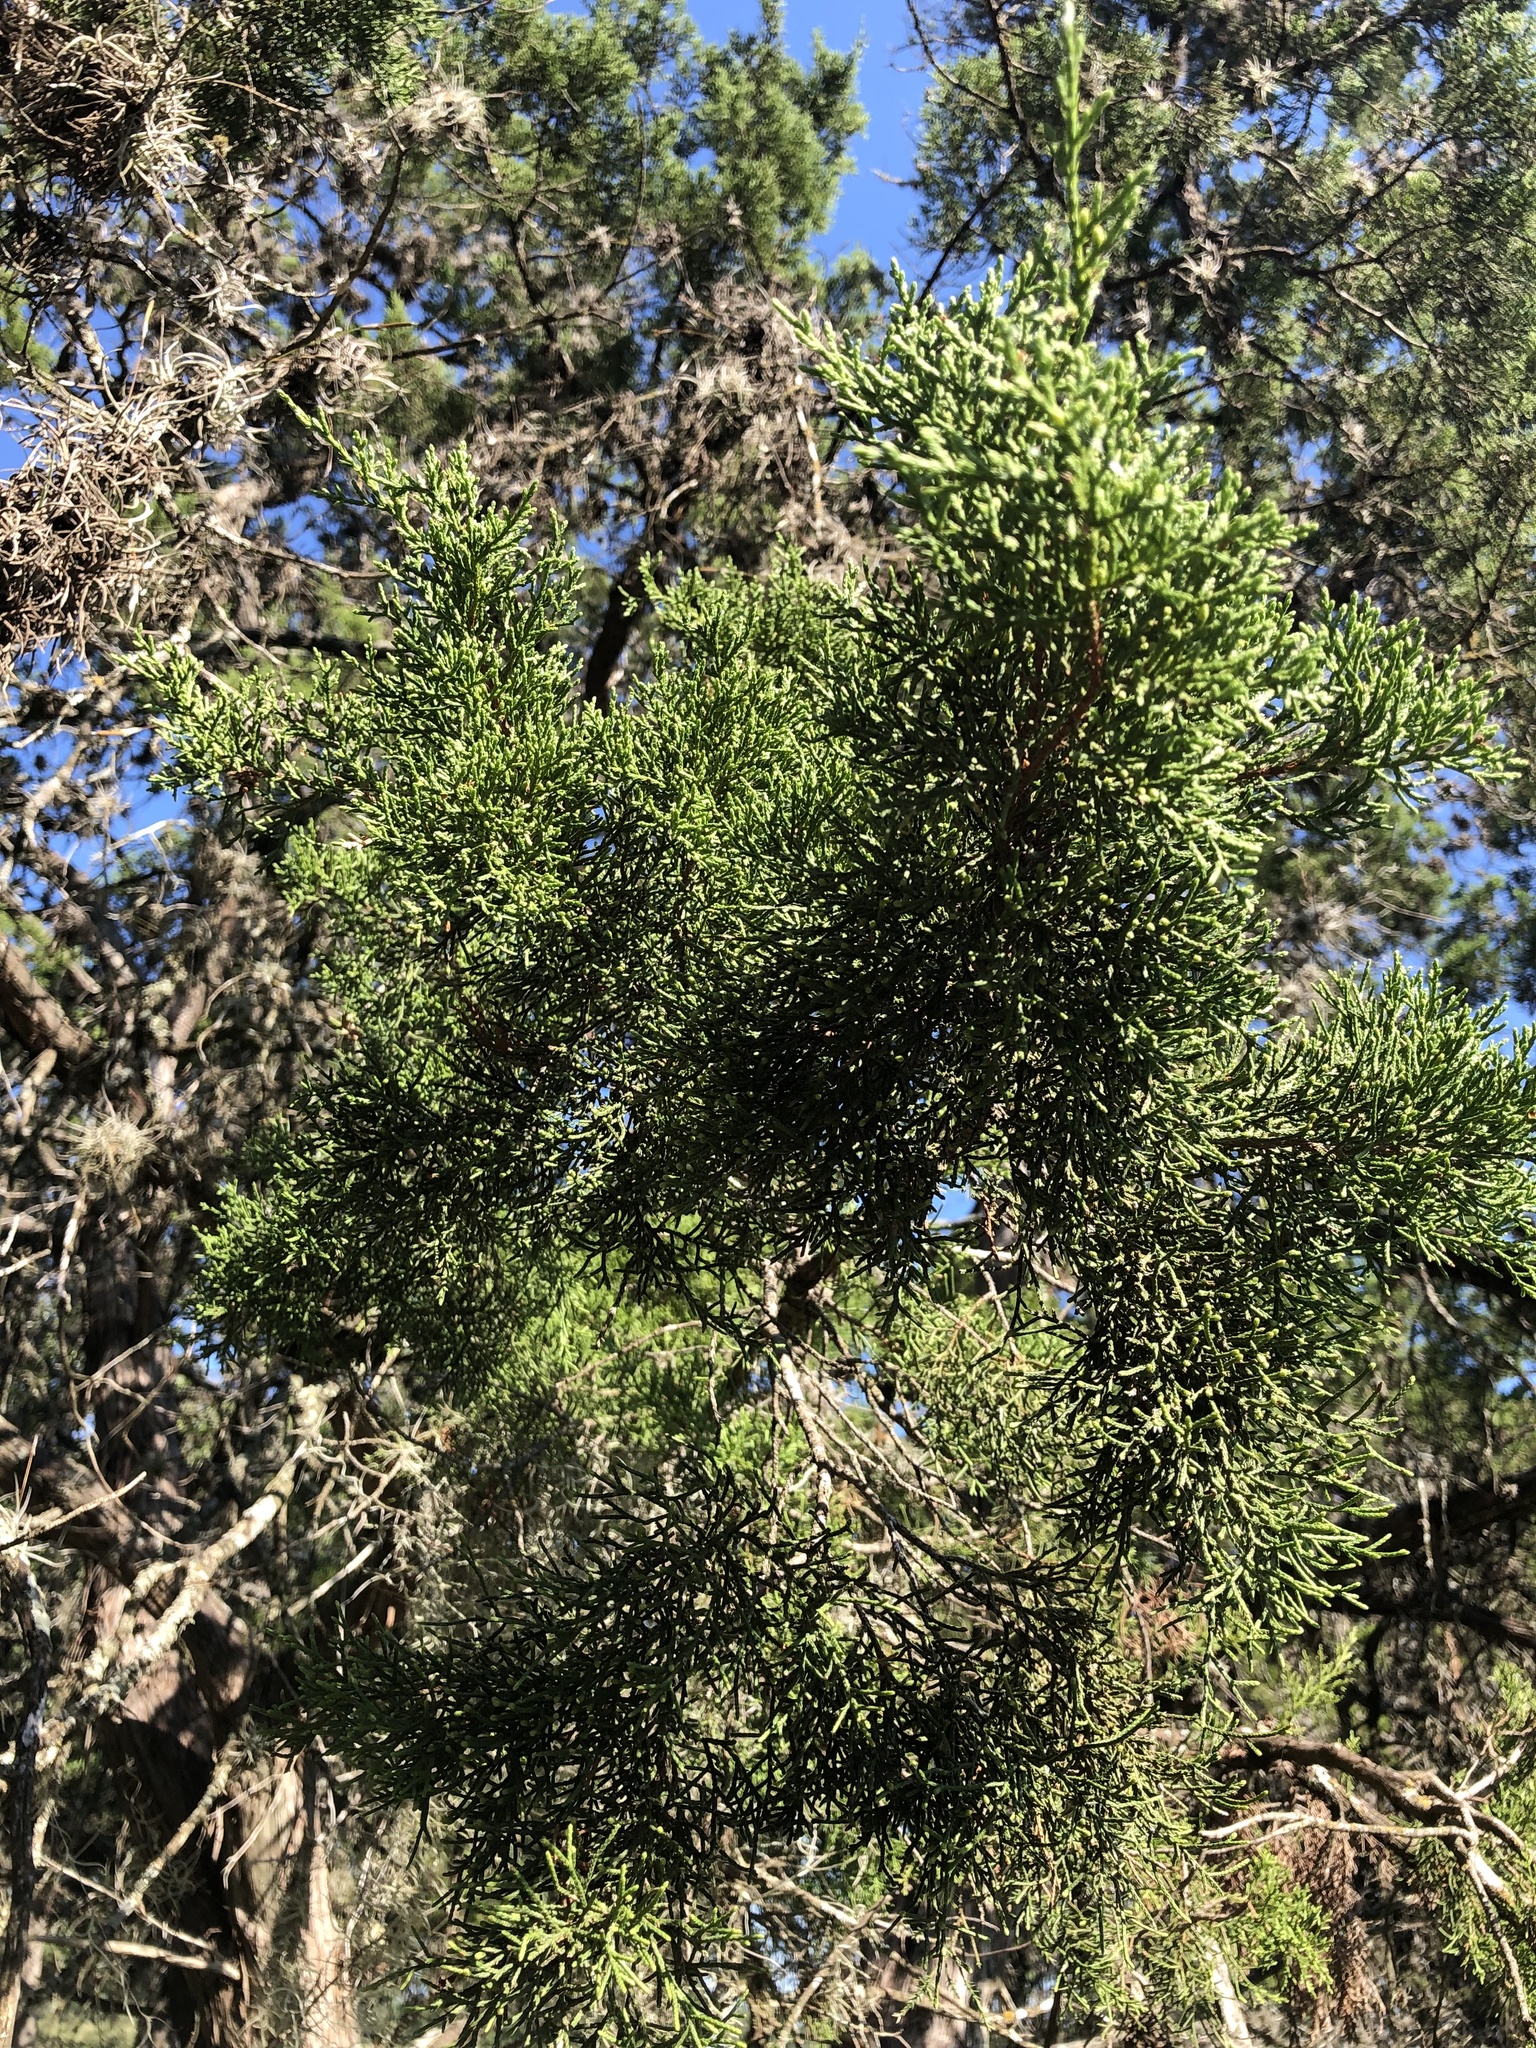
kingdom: Plantae
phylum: Tracheophyta
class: Pinopsida
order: Pinales
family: Cupressaceae
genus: Juniperus
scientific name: Juniperus ashei
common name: Mexican juniper
